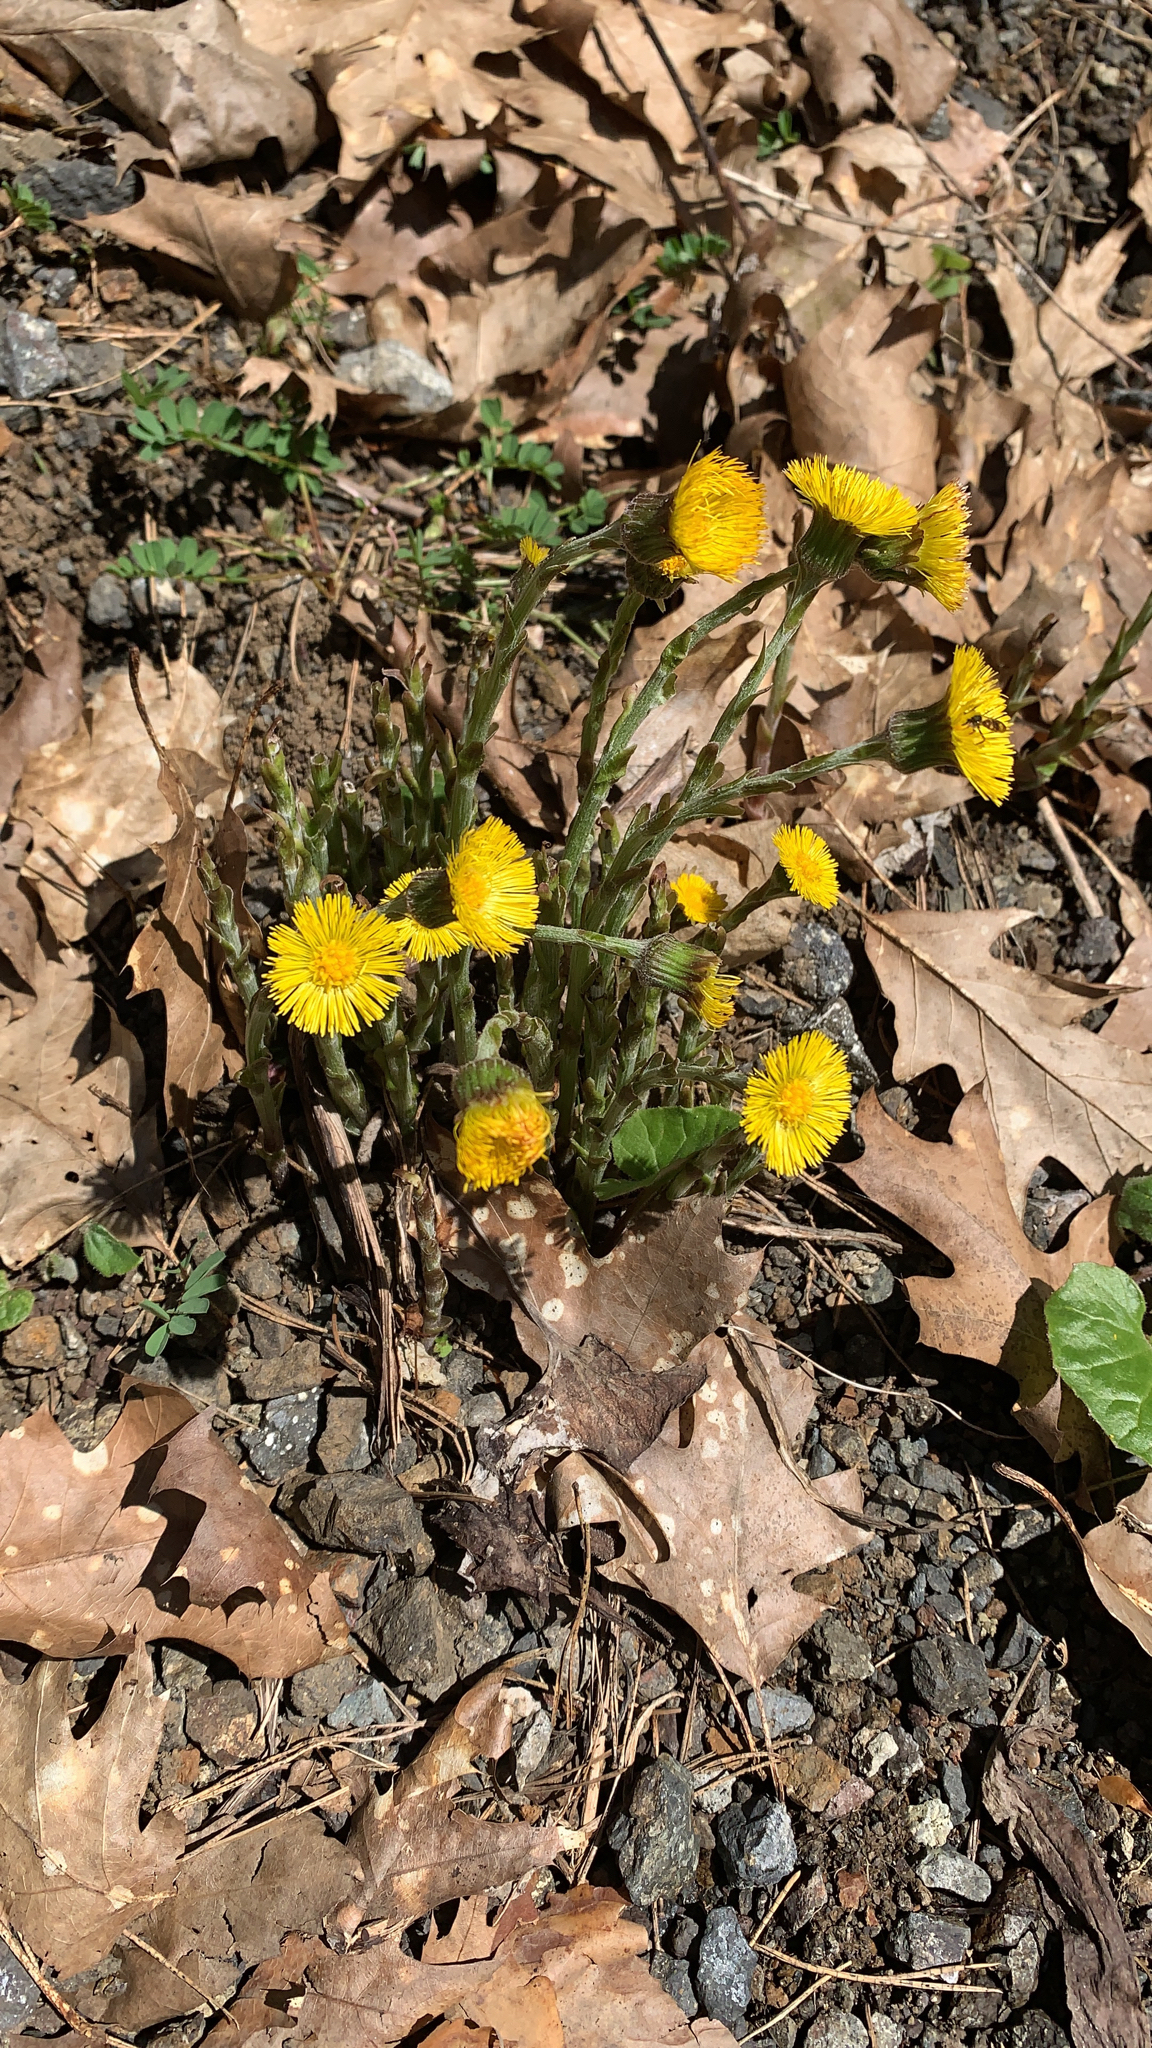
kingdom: Plantae
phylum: Tracheophyta
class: Magnoliopsida
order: Asterales
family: Asteraceae
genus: Tussilago
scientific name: Tussilago farfara
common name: Coltsfoot
